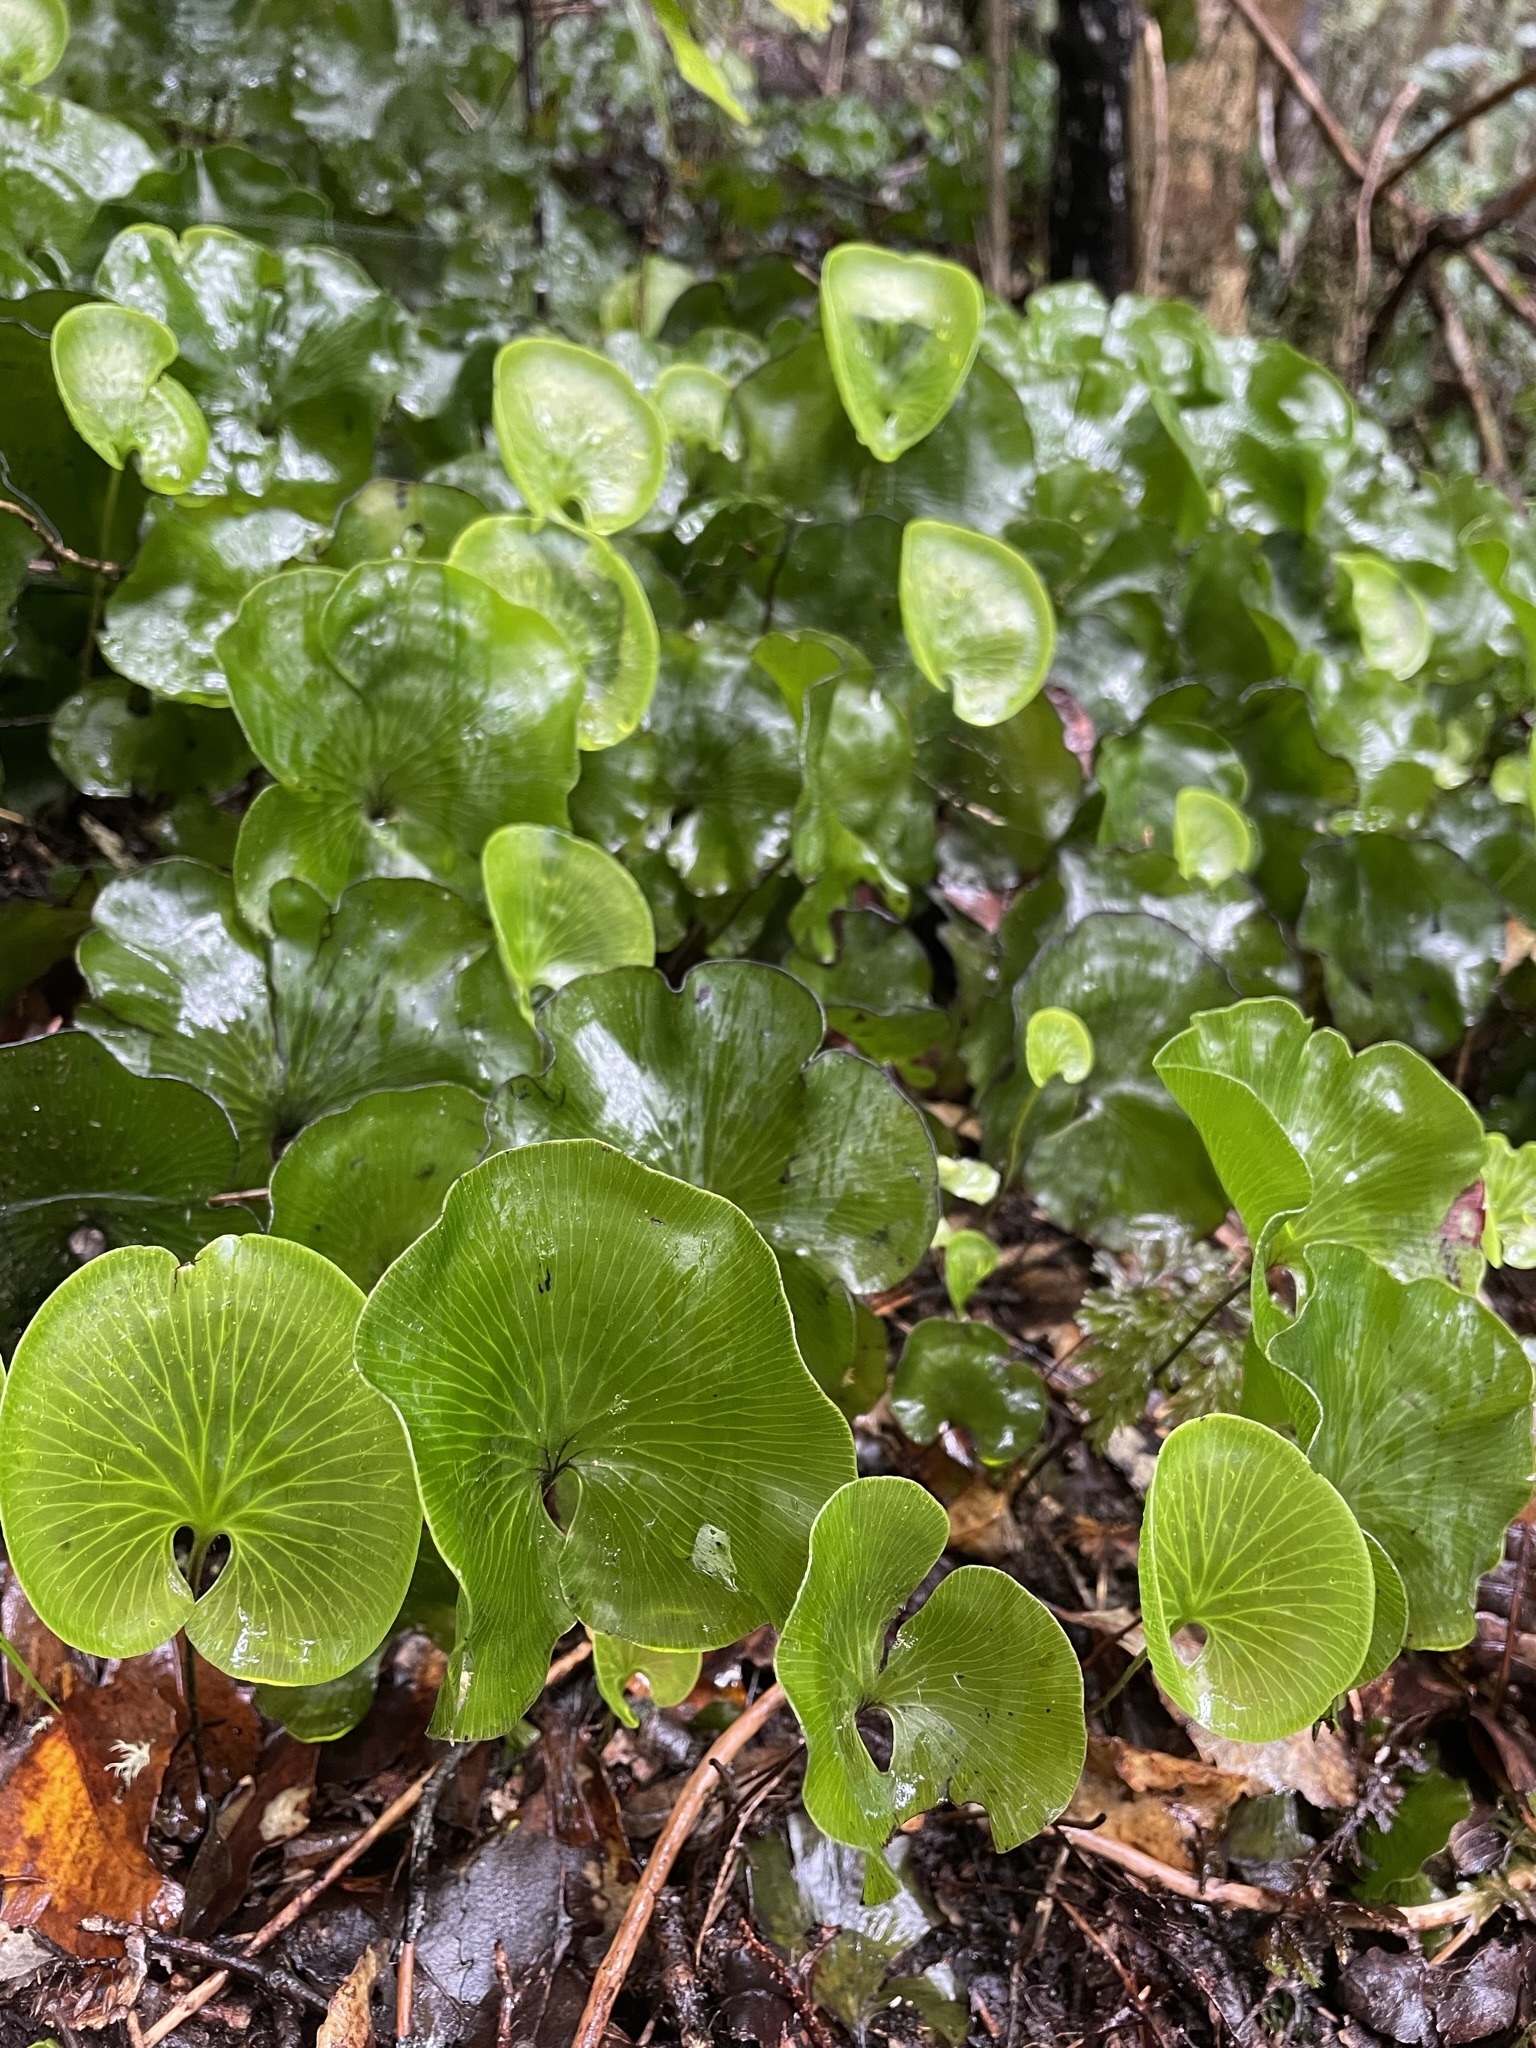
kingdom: Plantae
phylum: Tracheophyta
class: Polypodiopsida
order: Hymenophyllales
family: Hymenophyllaceae
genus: Hymenophyllum
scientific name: Hymenophyllum nephrophyllum
